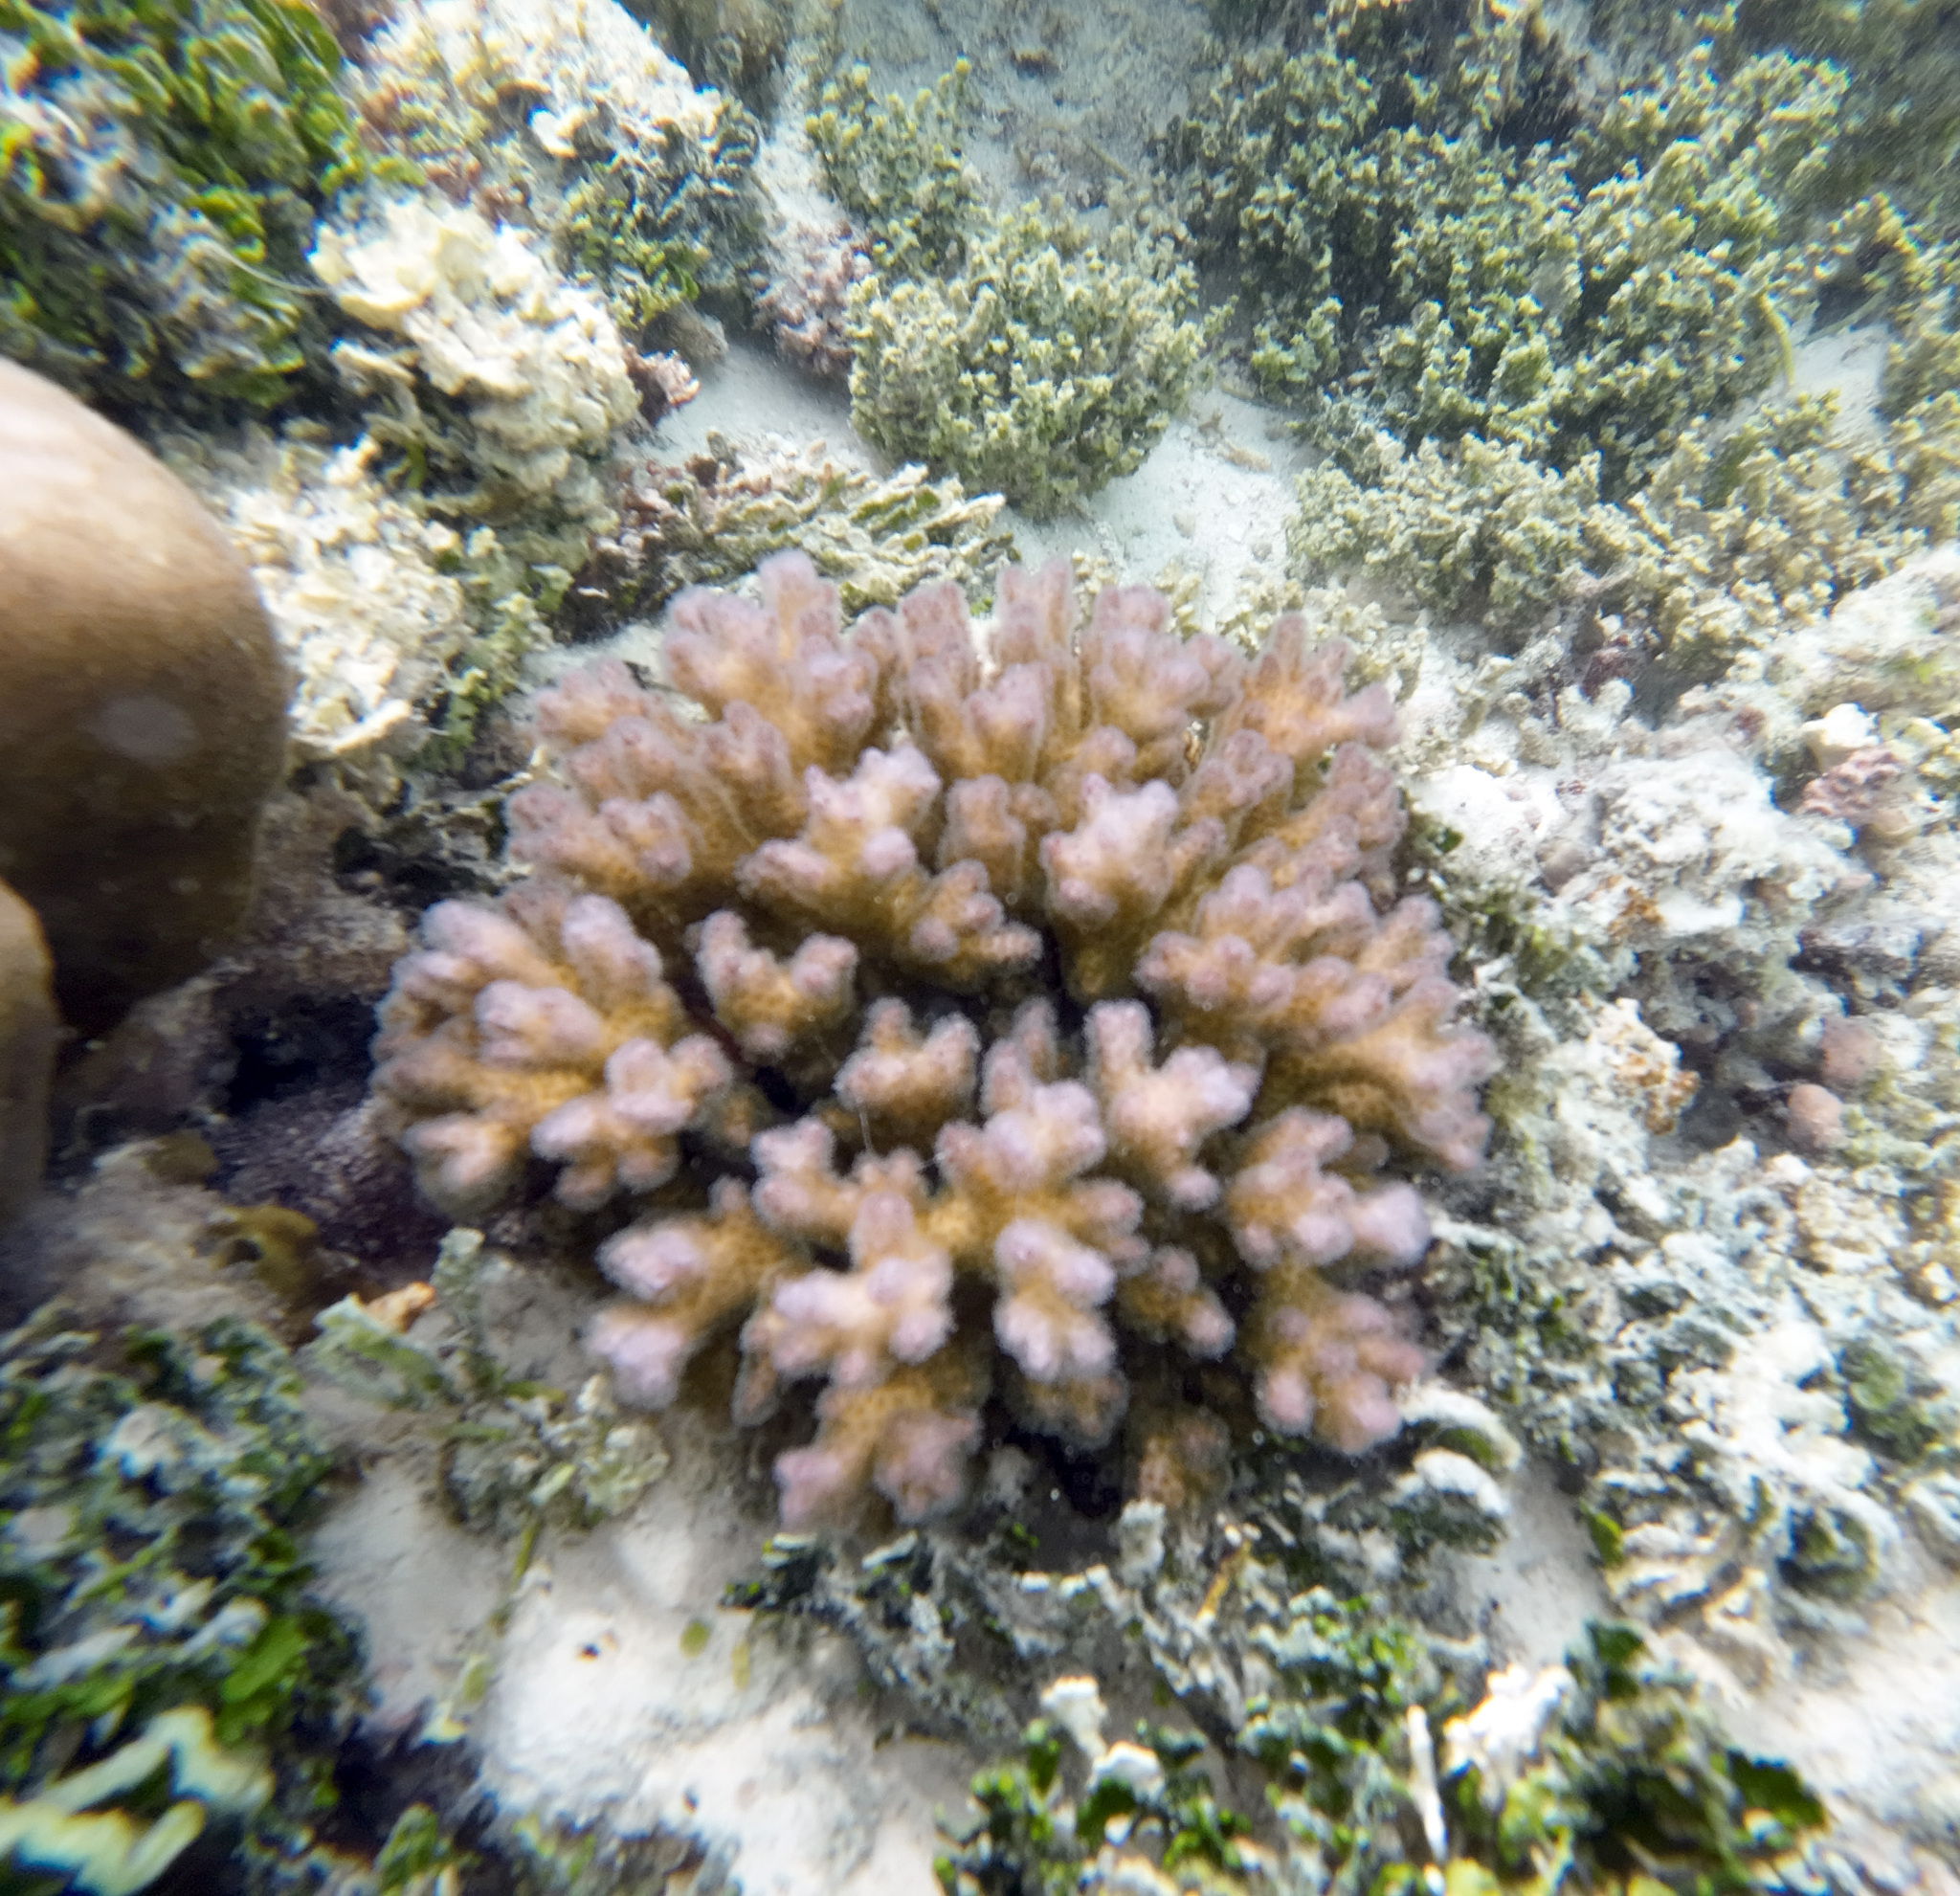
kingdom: Animalia
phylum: Cnidaria
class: Anthozoa
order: Scleractinia
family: Pocilloporidae
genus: Pocillopora
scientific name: Pocillopora damicornis
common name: Cauliflower coral
